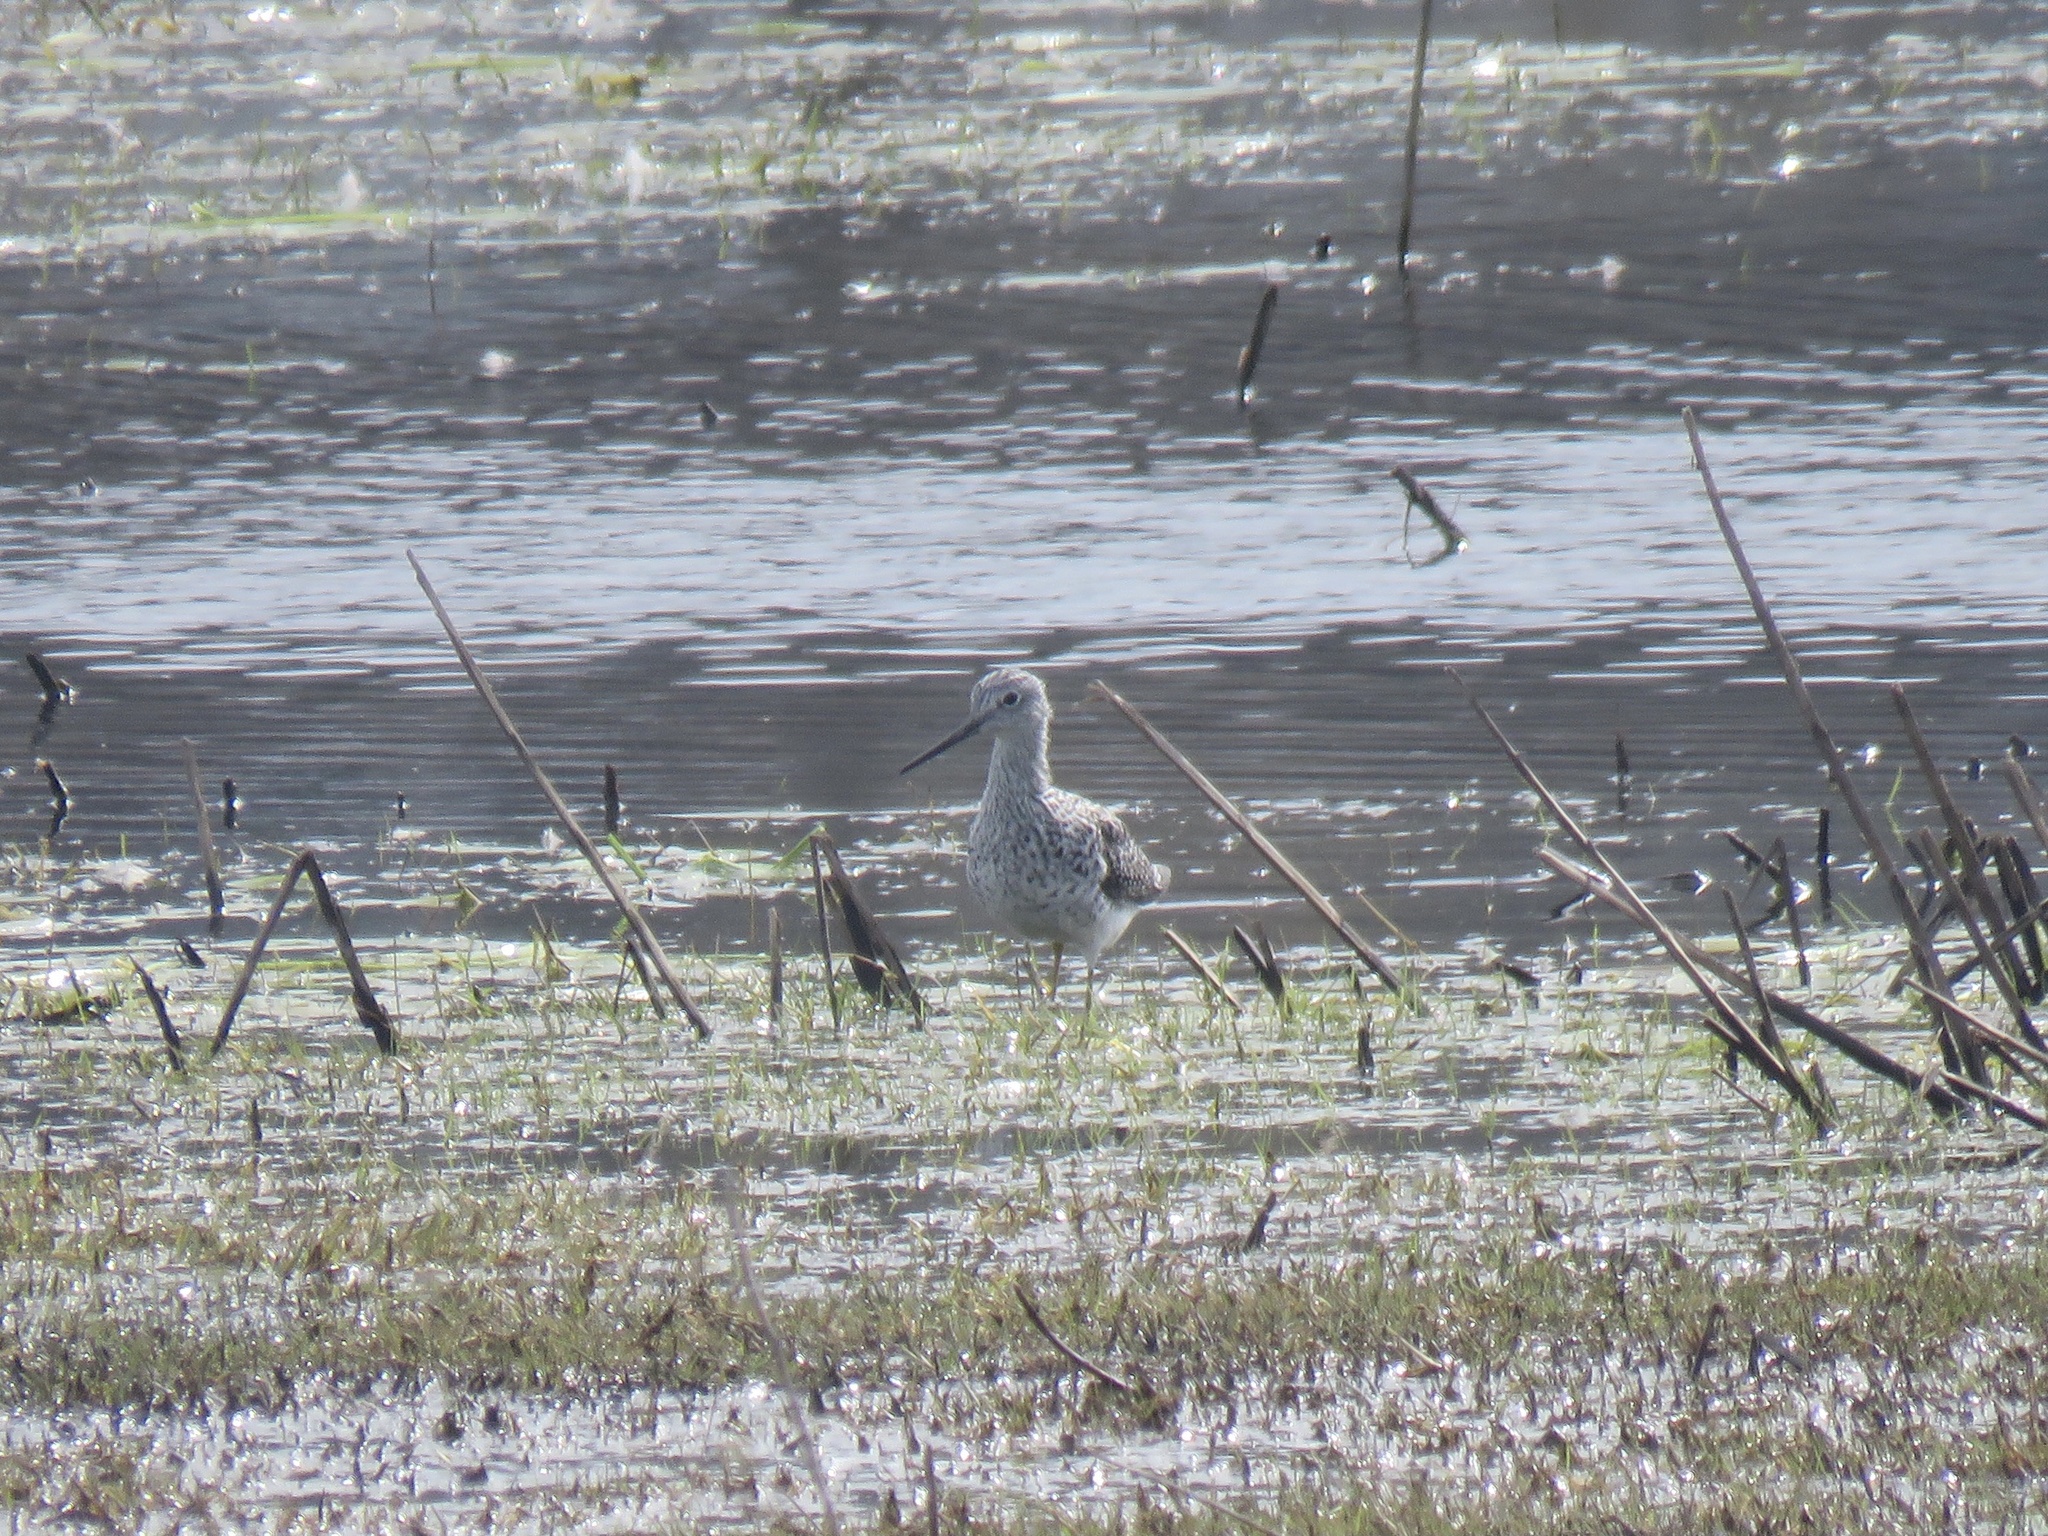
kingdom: Animalia
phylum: Chordata
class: Aves
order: Charadriiformes
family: Scolopacidae
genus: Tringa
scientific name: Tringa melanoleuca
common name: Greater yellowlegs
